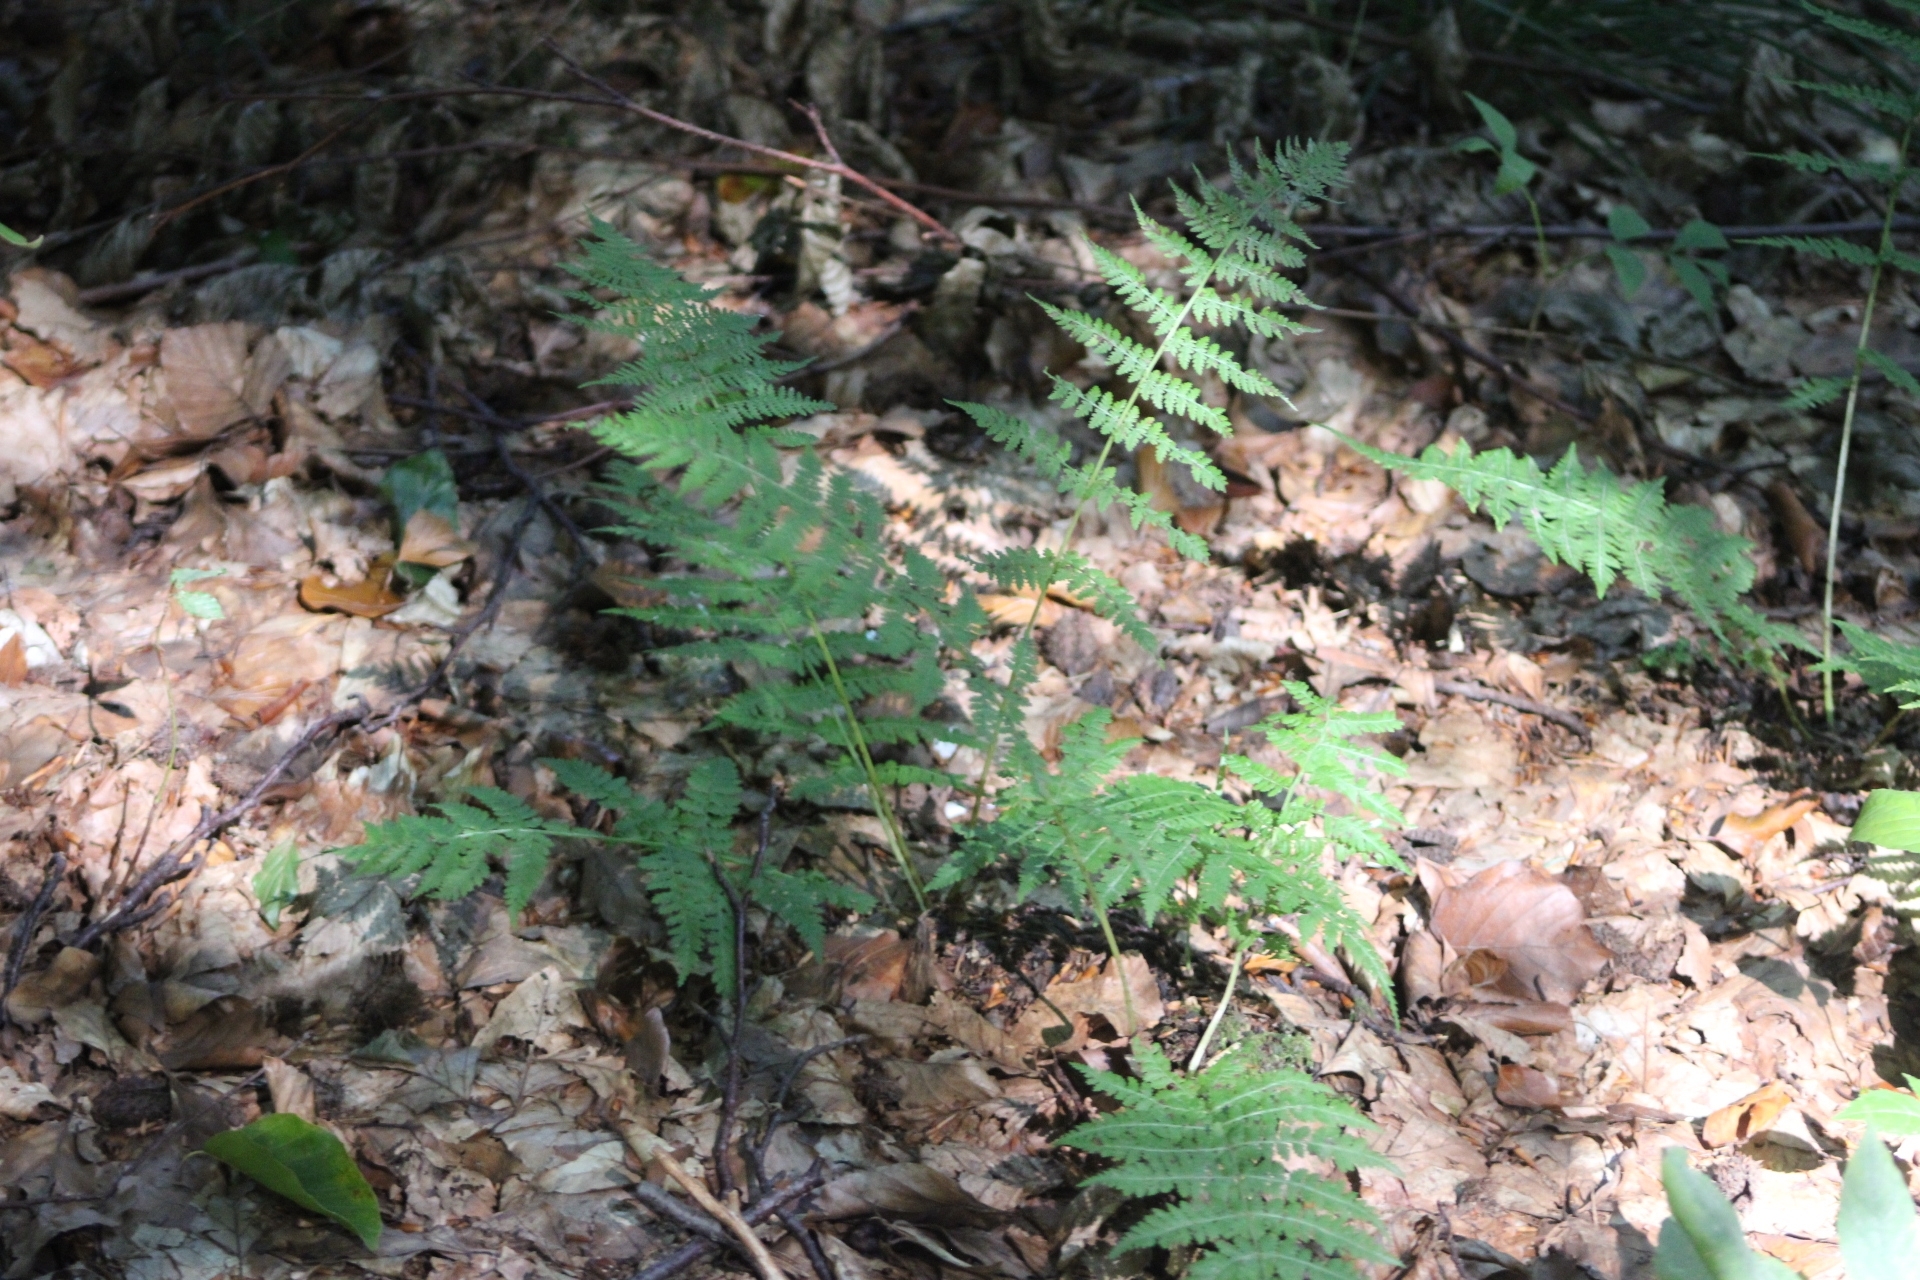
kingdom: Plantae
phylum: Tracheophyta
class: Polypodiopsida
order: Polypodiales
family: Athyriaceae
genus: Athyrium
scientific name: Athyrium filix-femina
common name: Lady fern
